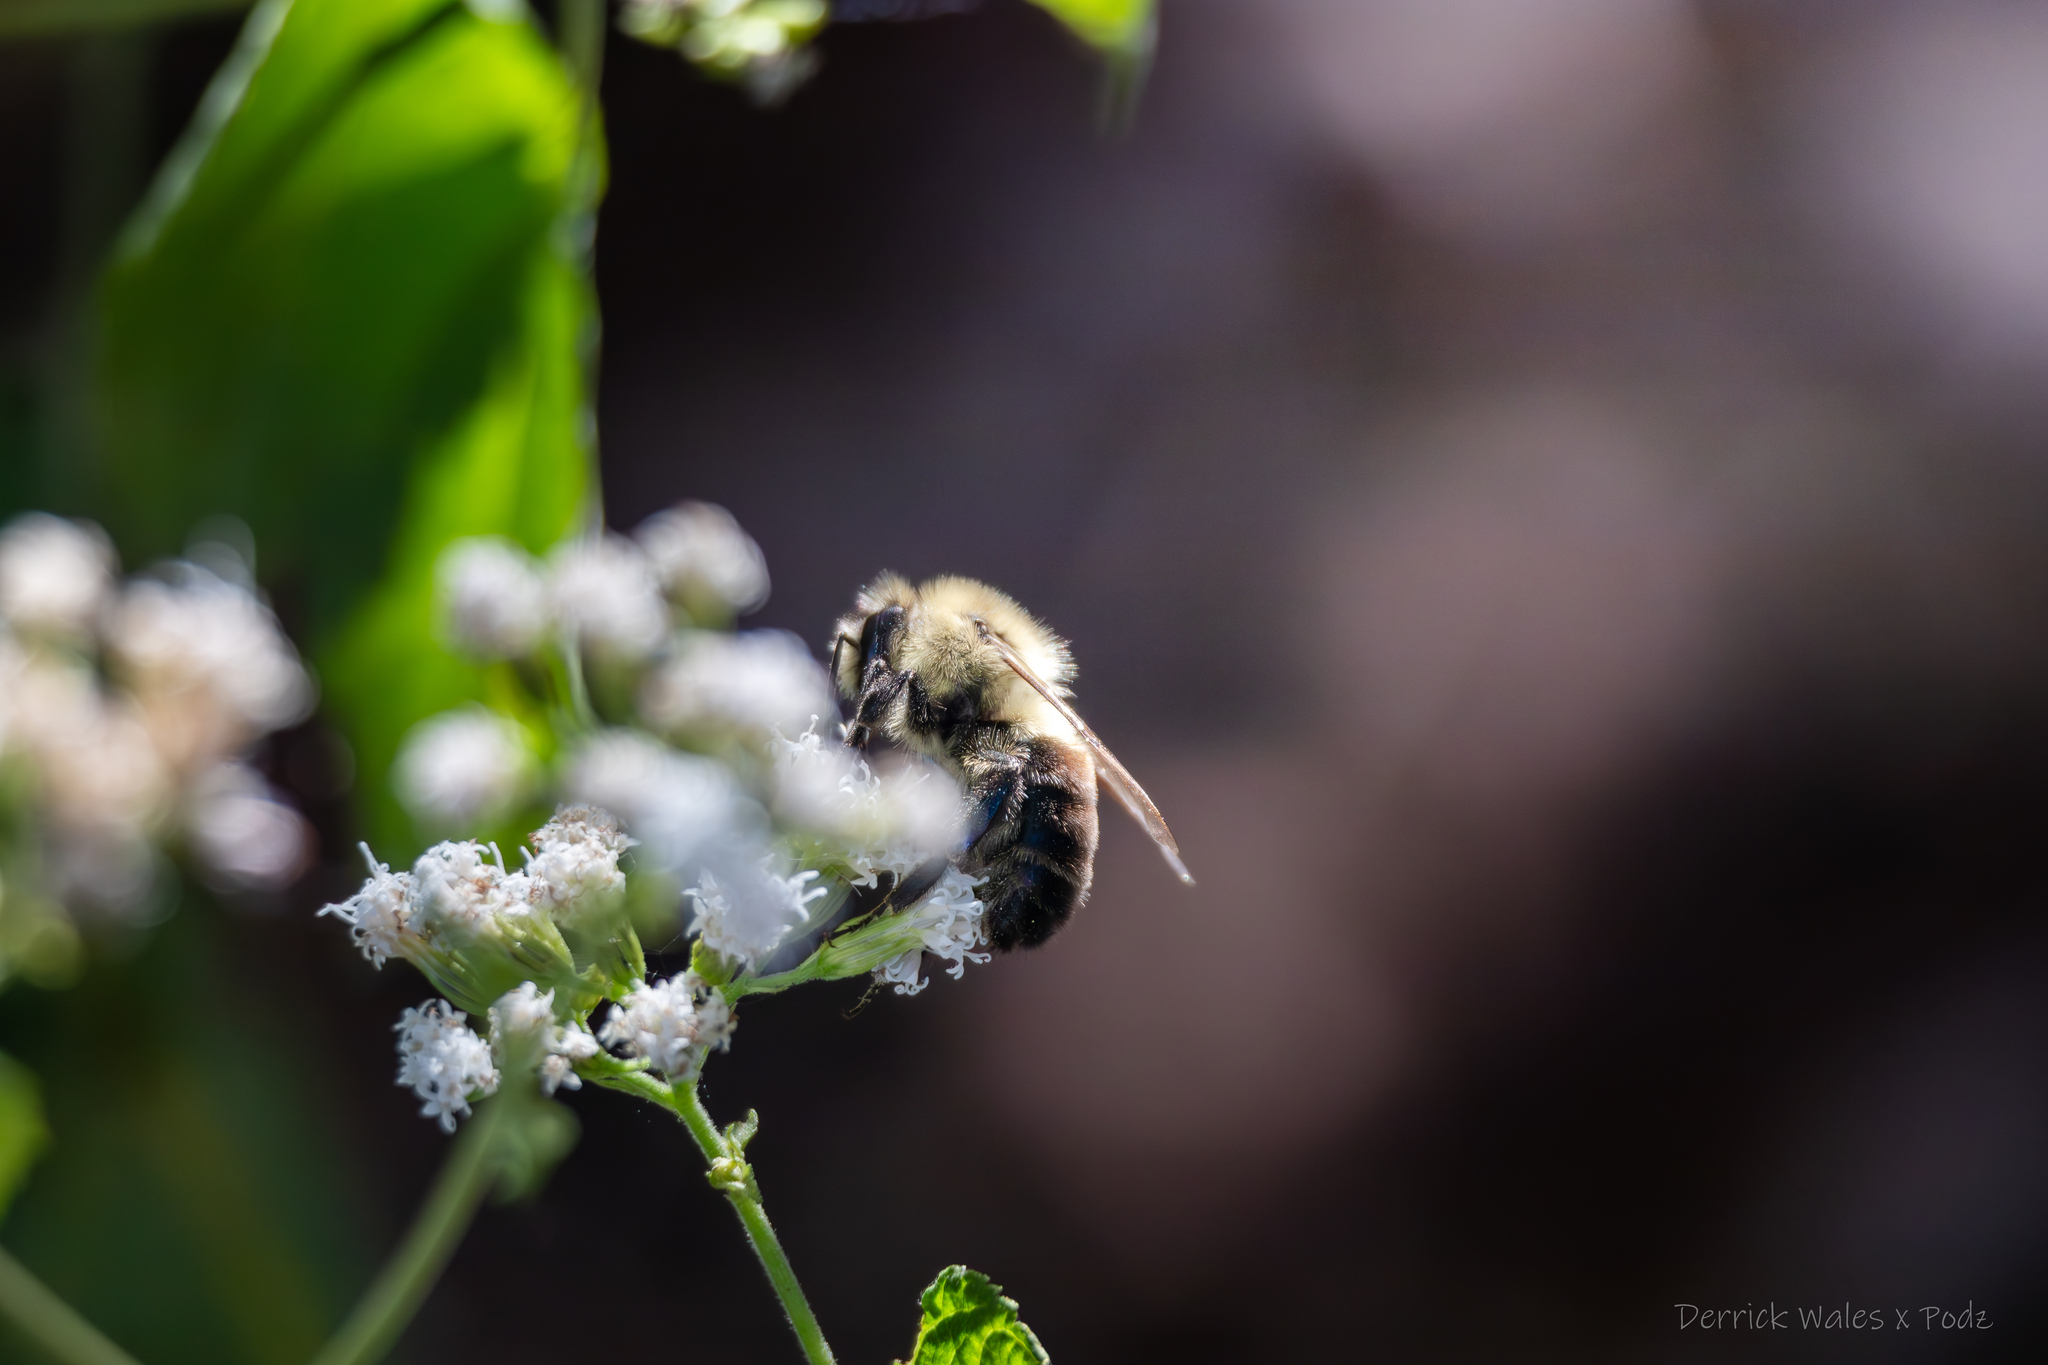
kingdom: Animalia
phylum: Arthropoda
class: Insecta
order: Hymenoptera
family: Apidae
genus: Bombus
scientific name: Bombus impatiens
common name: Common eastern bumble bee
